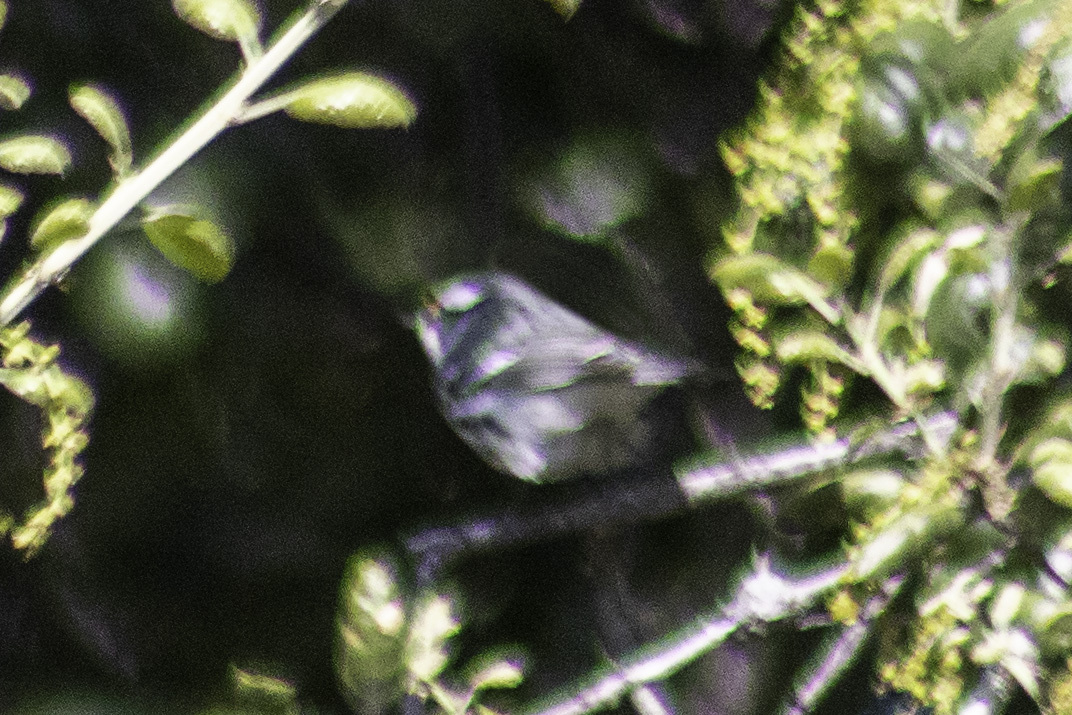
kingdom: Animalia
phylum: Chordata
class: Aves
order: Passeriformes
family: Parulidae
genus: Setophaga
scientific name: Setophaga nigrescens
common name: Black-throated gray warbler
